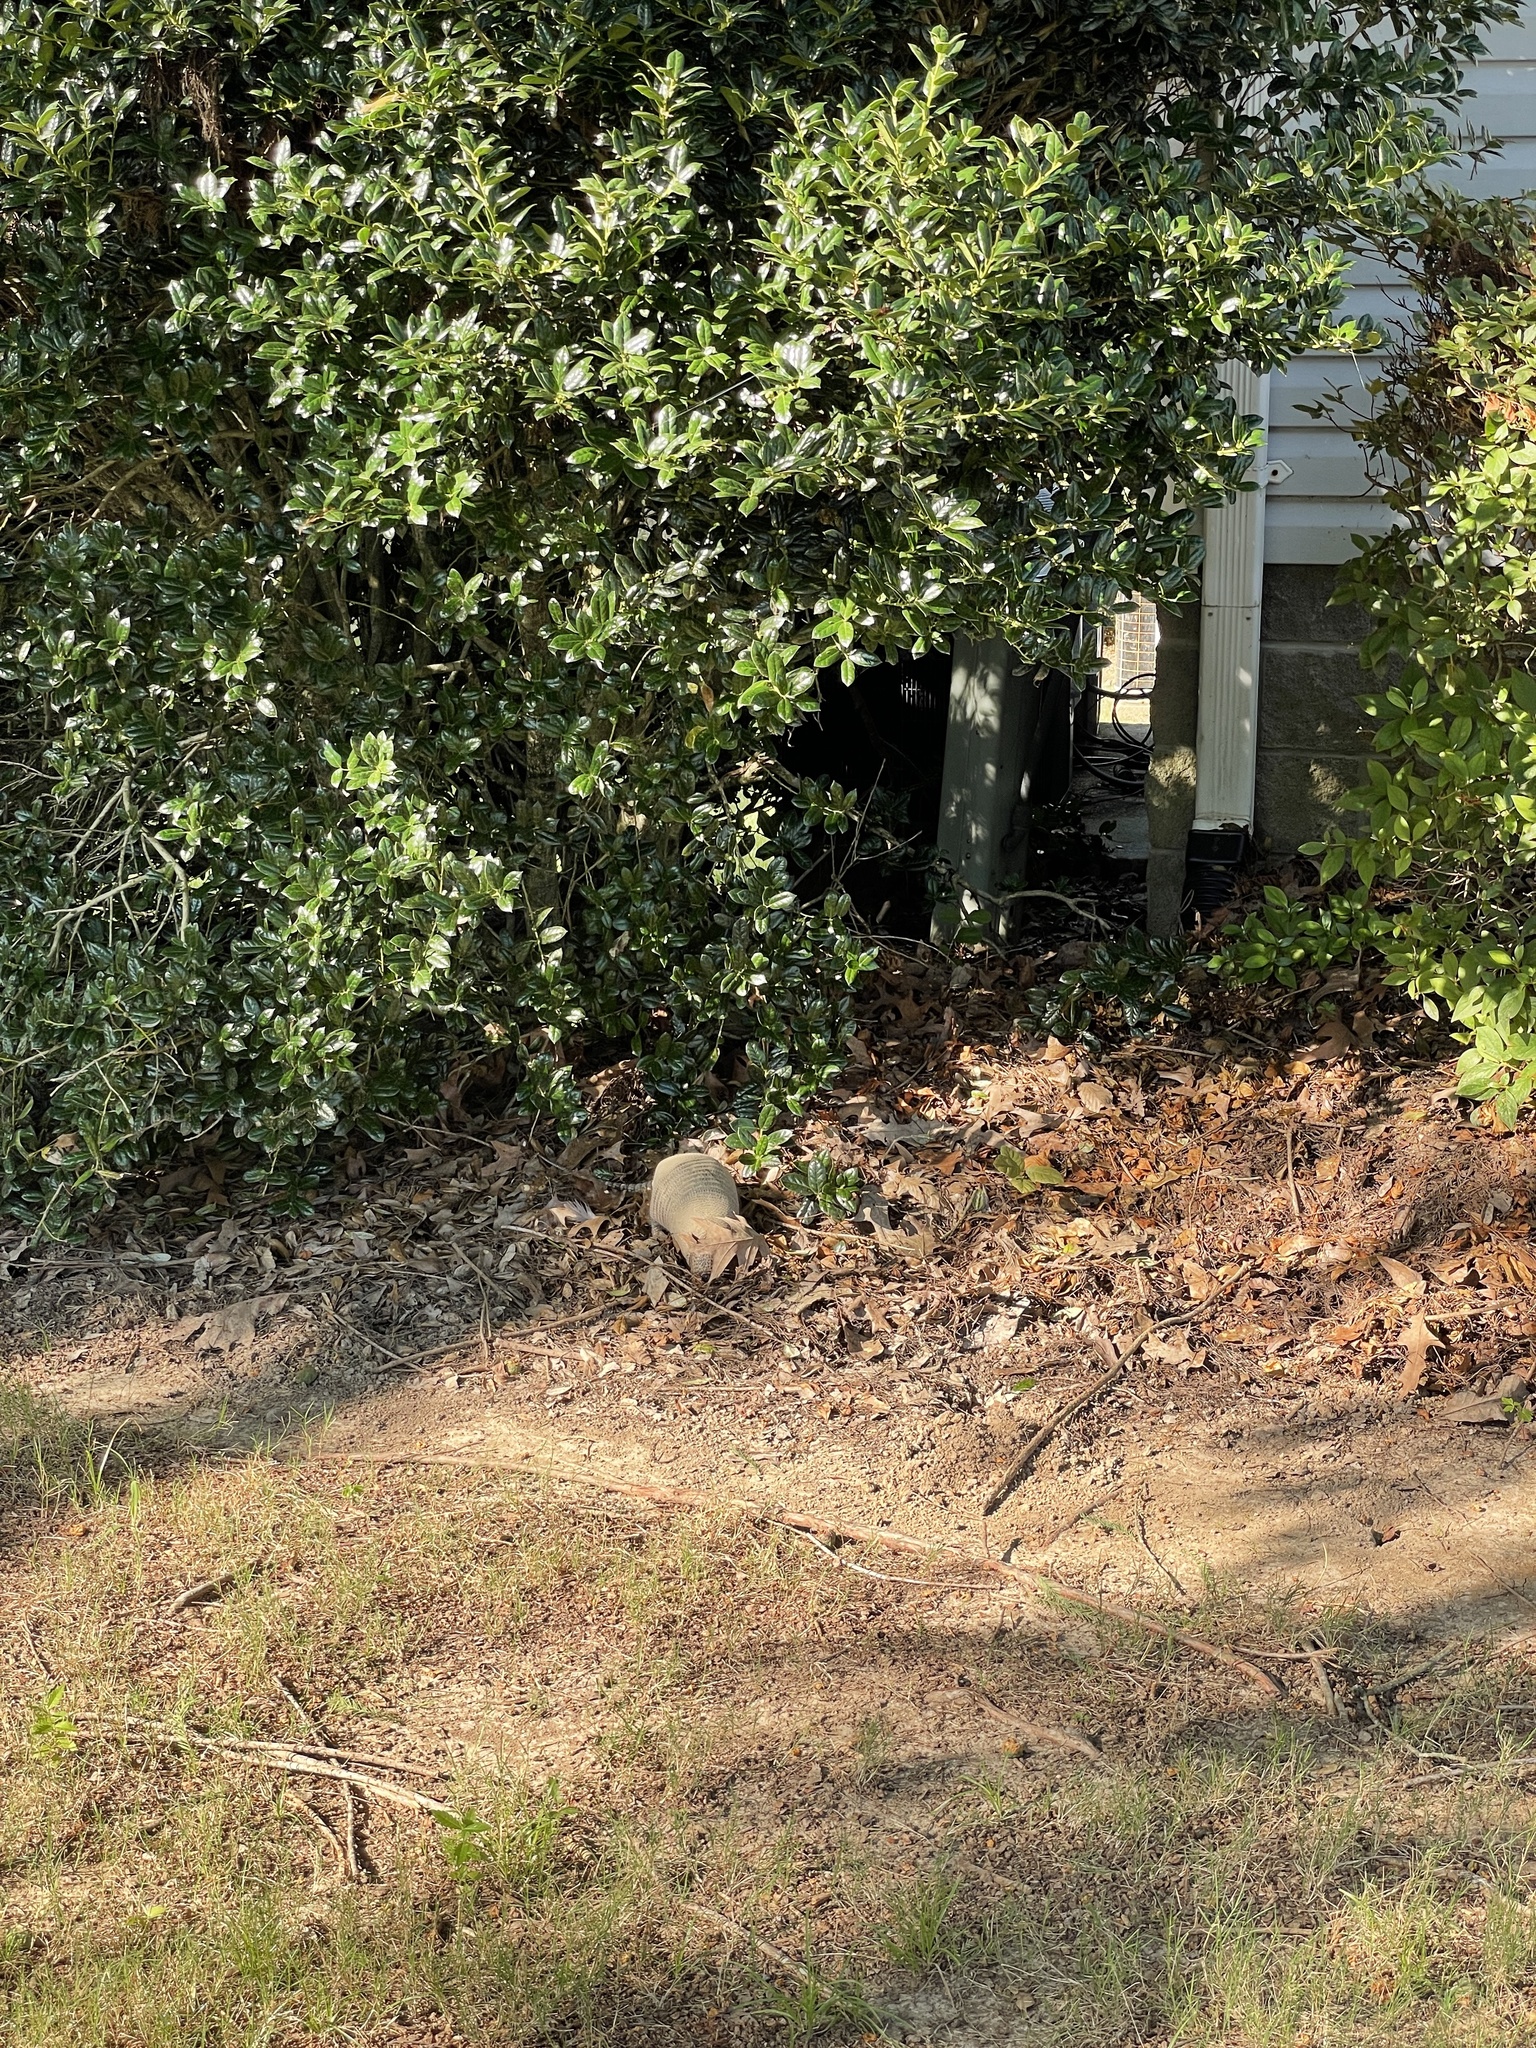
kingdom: Animalia
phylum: Chordata
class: Mammalia
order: Cingulata
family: Dasypodidae
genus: Dasypus
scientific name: Dasypus novemcinctus
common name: Nine-banded armadillo
